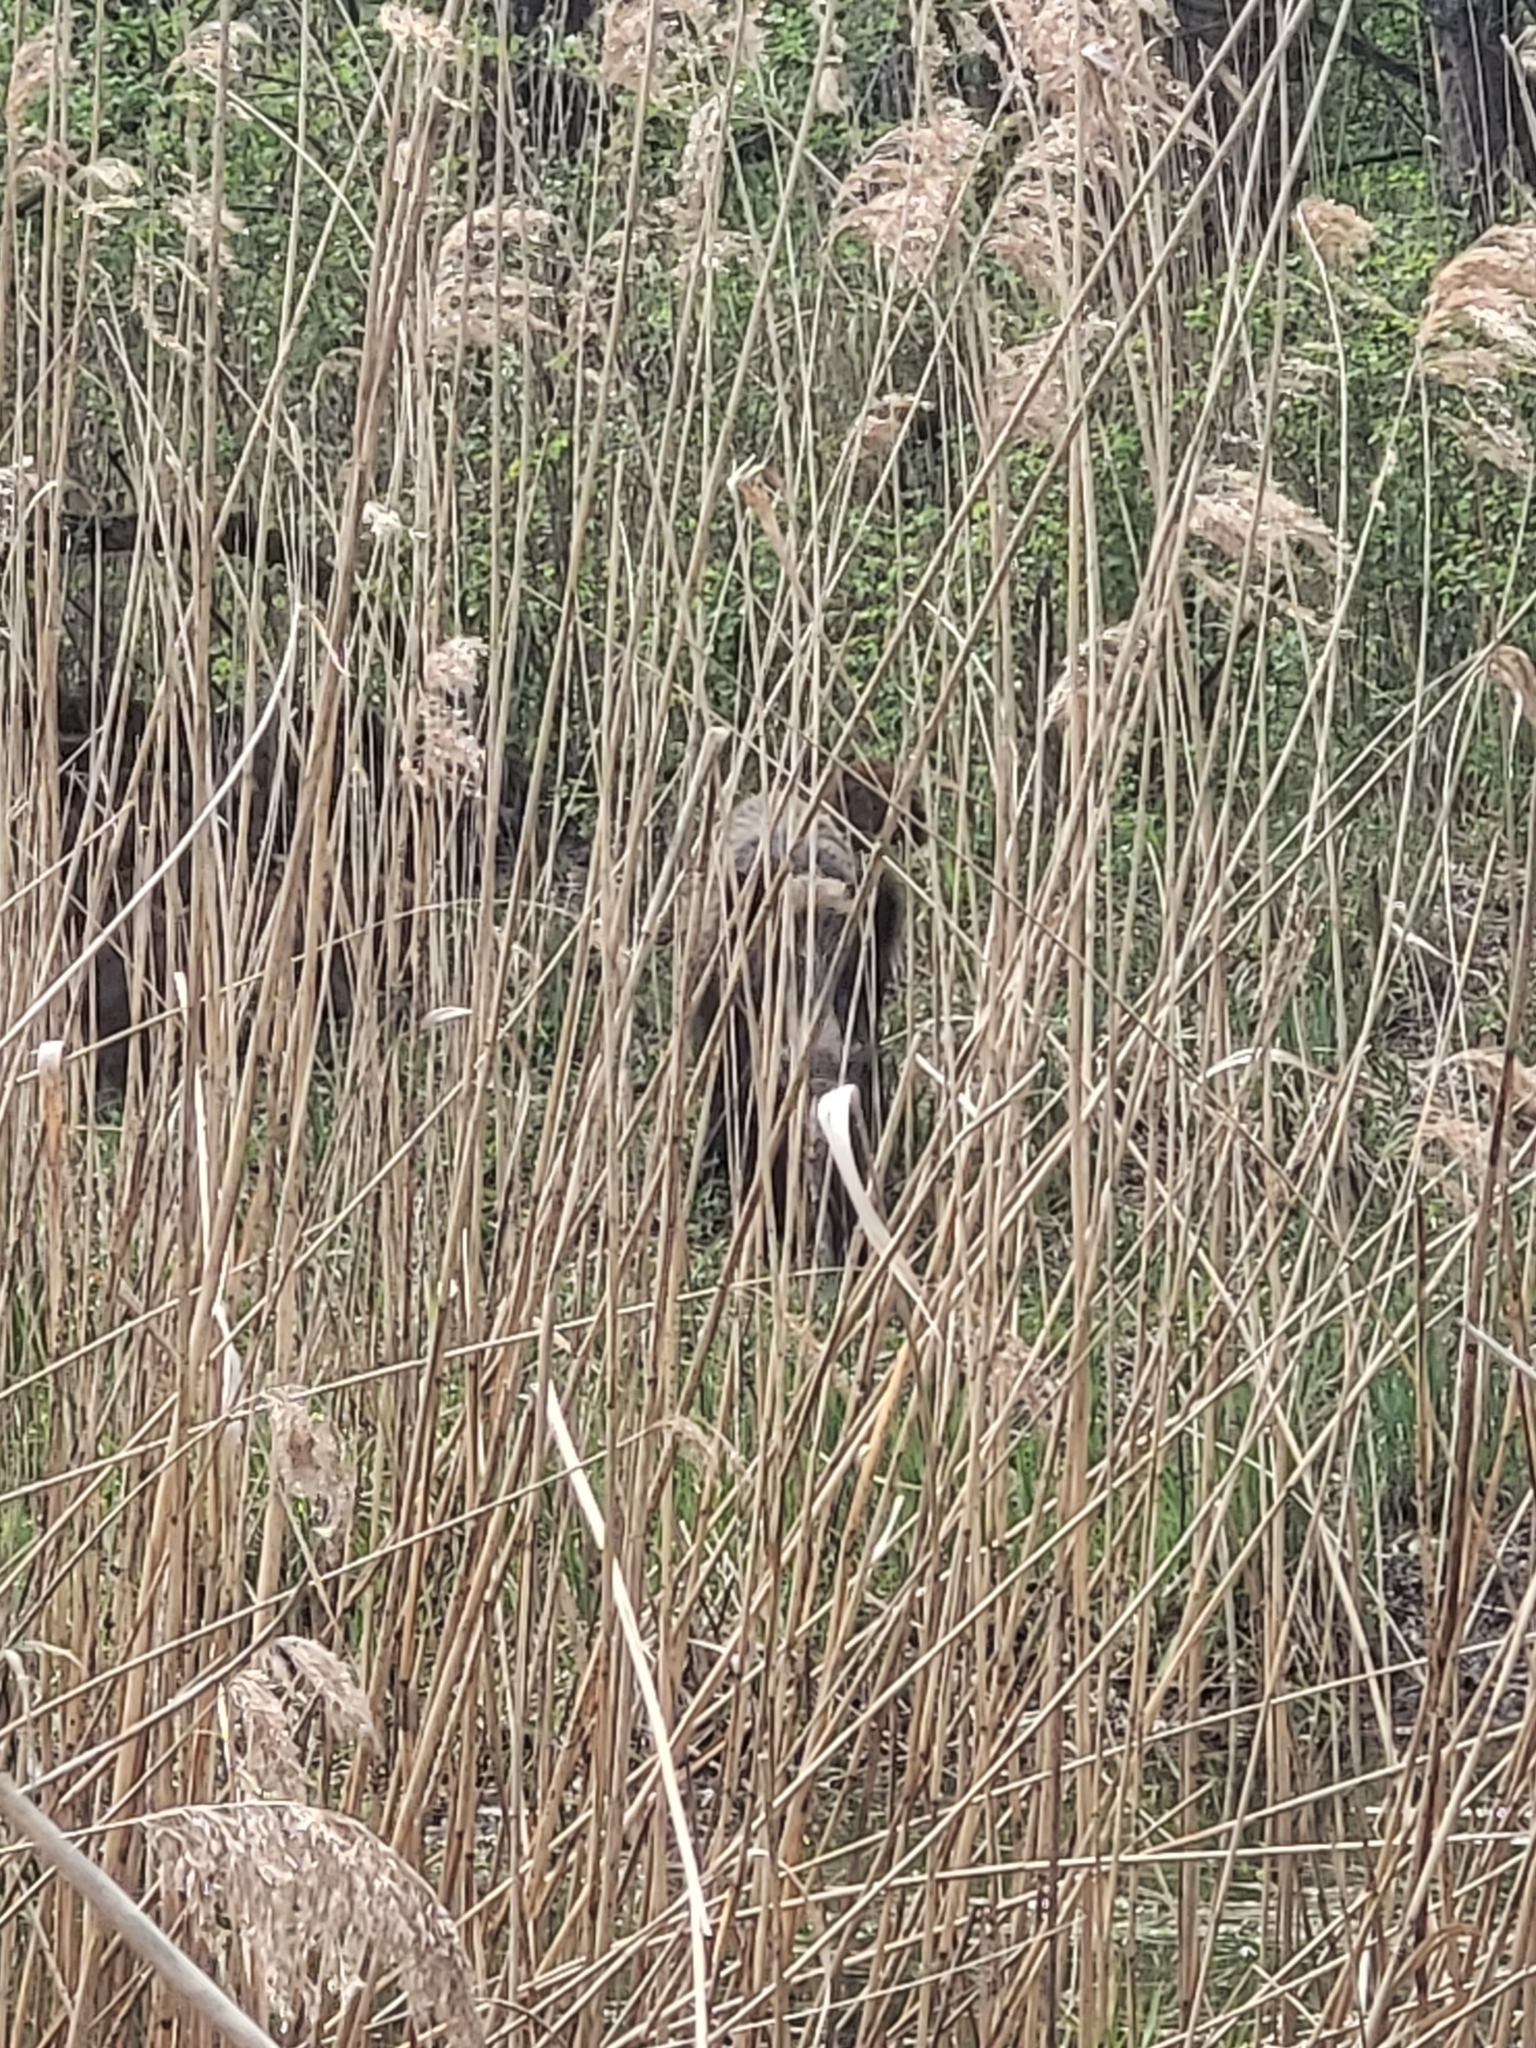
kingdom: Animalia
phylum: Chordata
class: Mammalia
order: Artiodactyla
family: Suidae
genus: Sus
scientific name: Sus scrofa
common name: Wild boar
